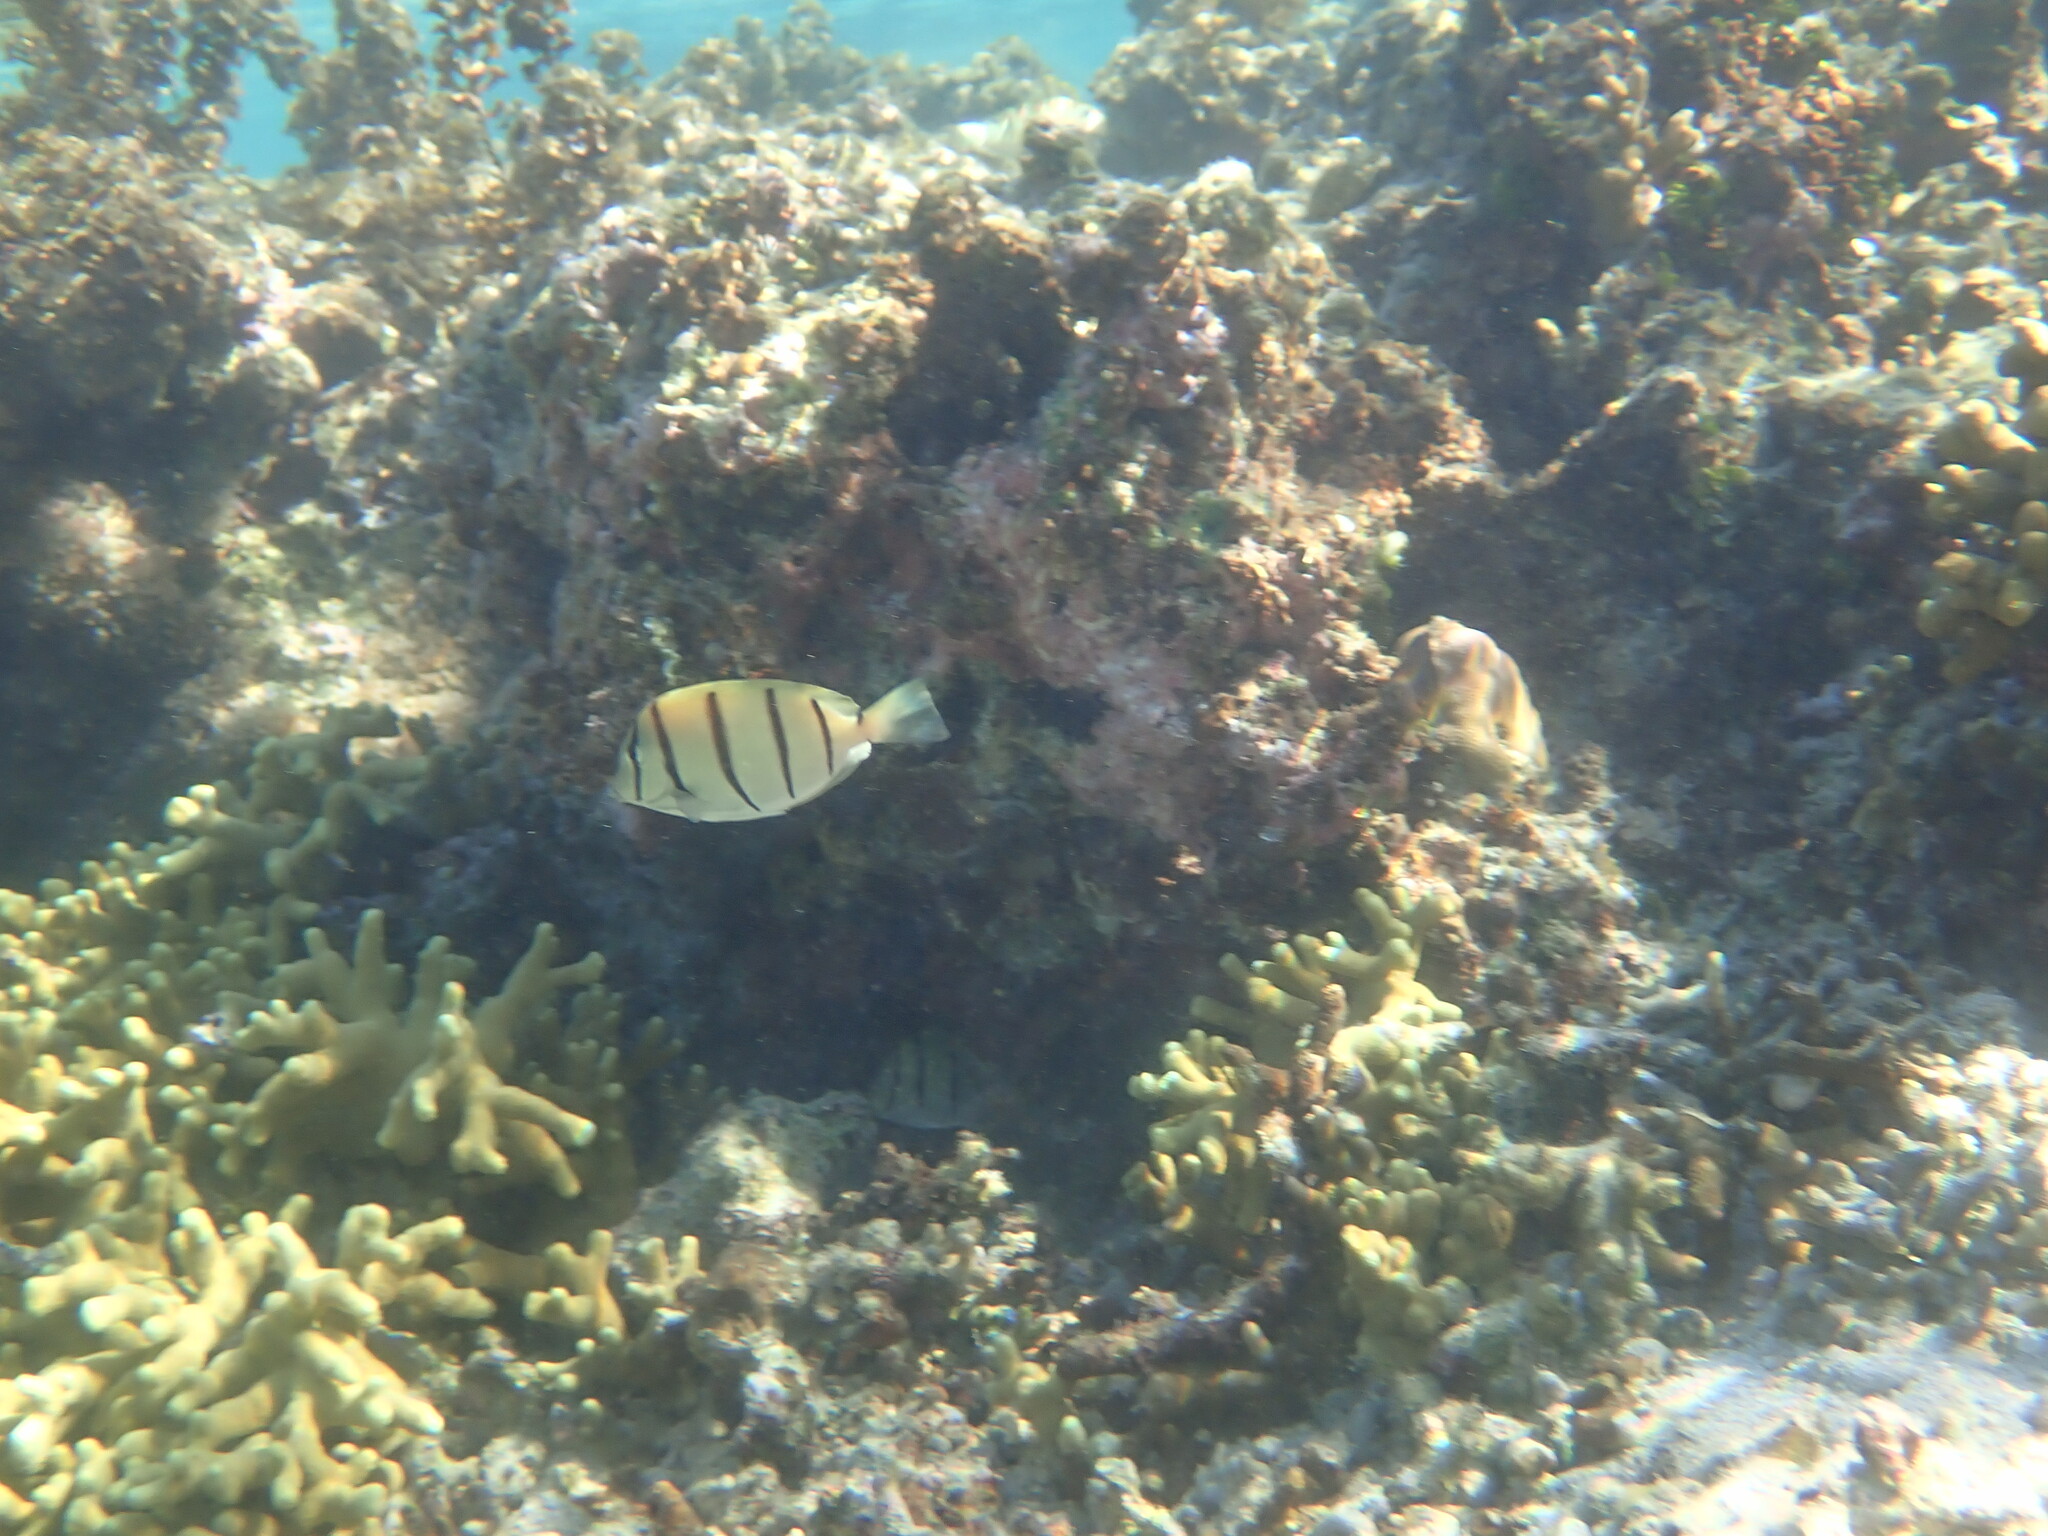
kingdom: Animalia
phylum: Chordata
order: Perciformes
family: Acanthuridae
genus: Acanthurus
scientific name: Acanthurus triostegus
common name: Convict surgeonfish
